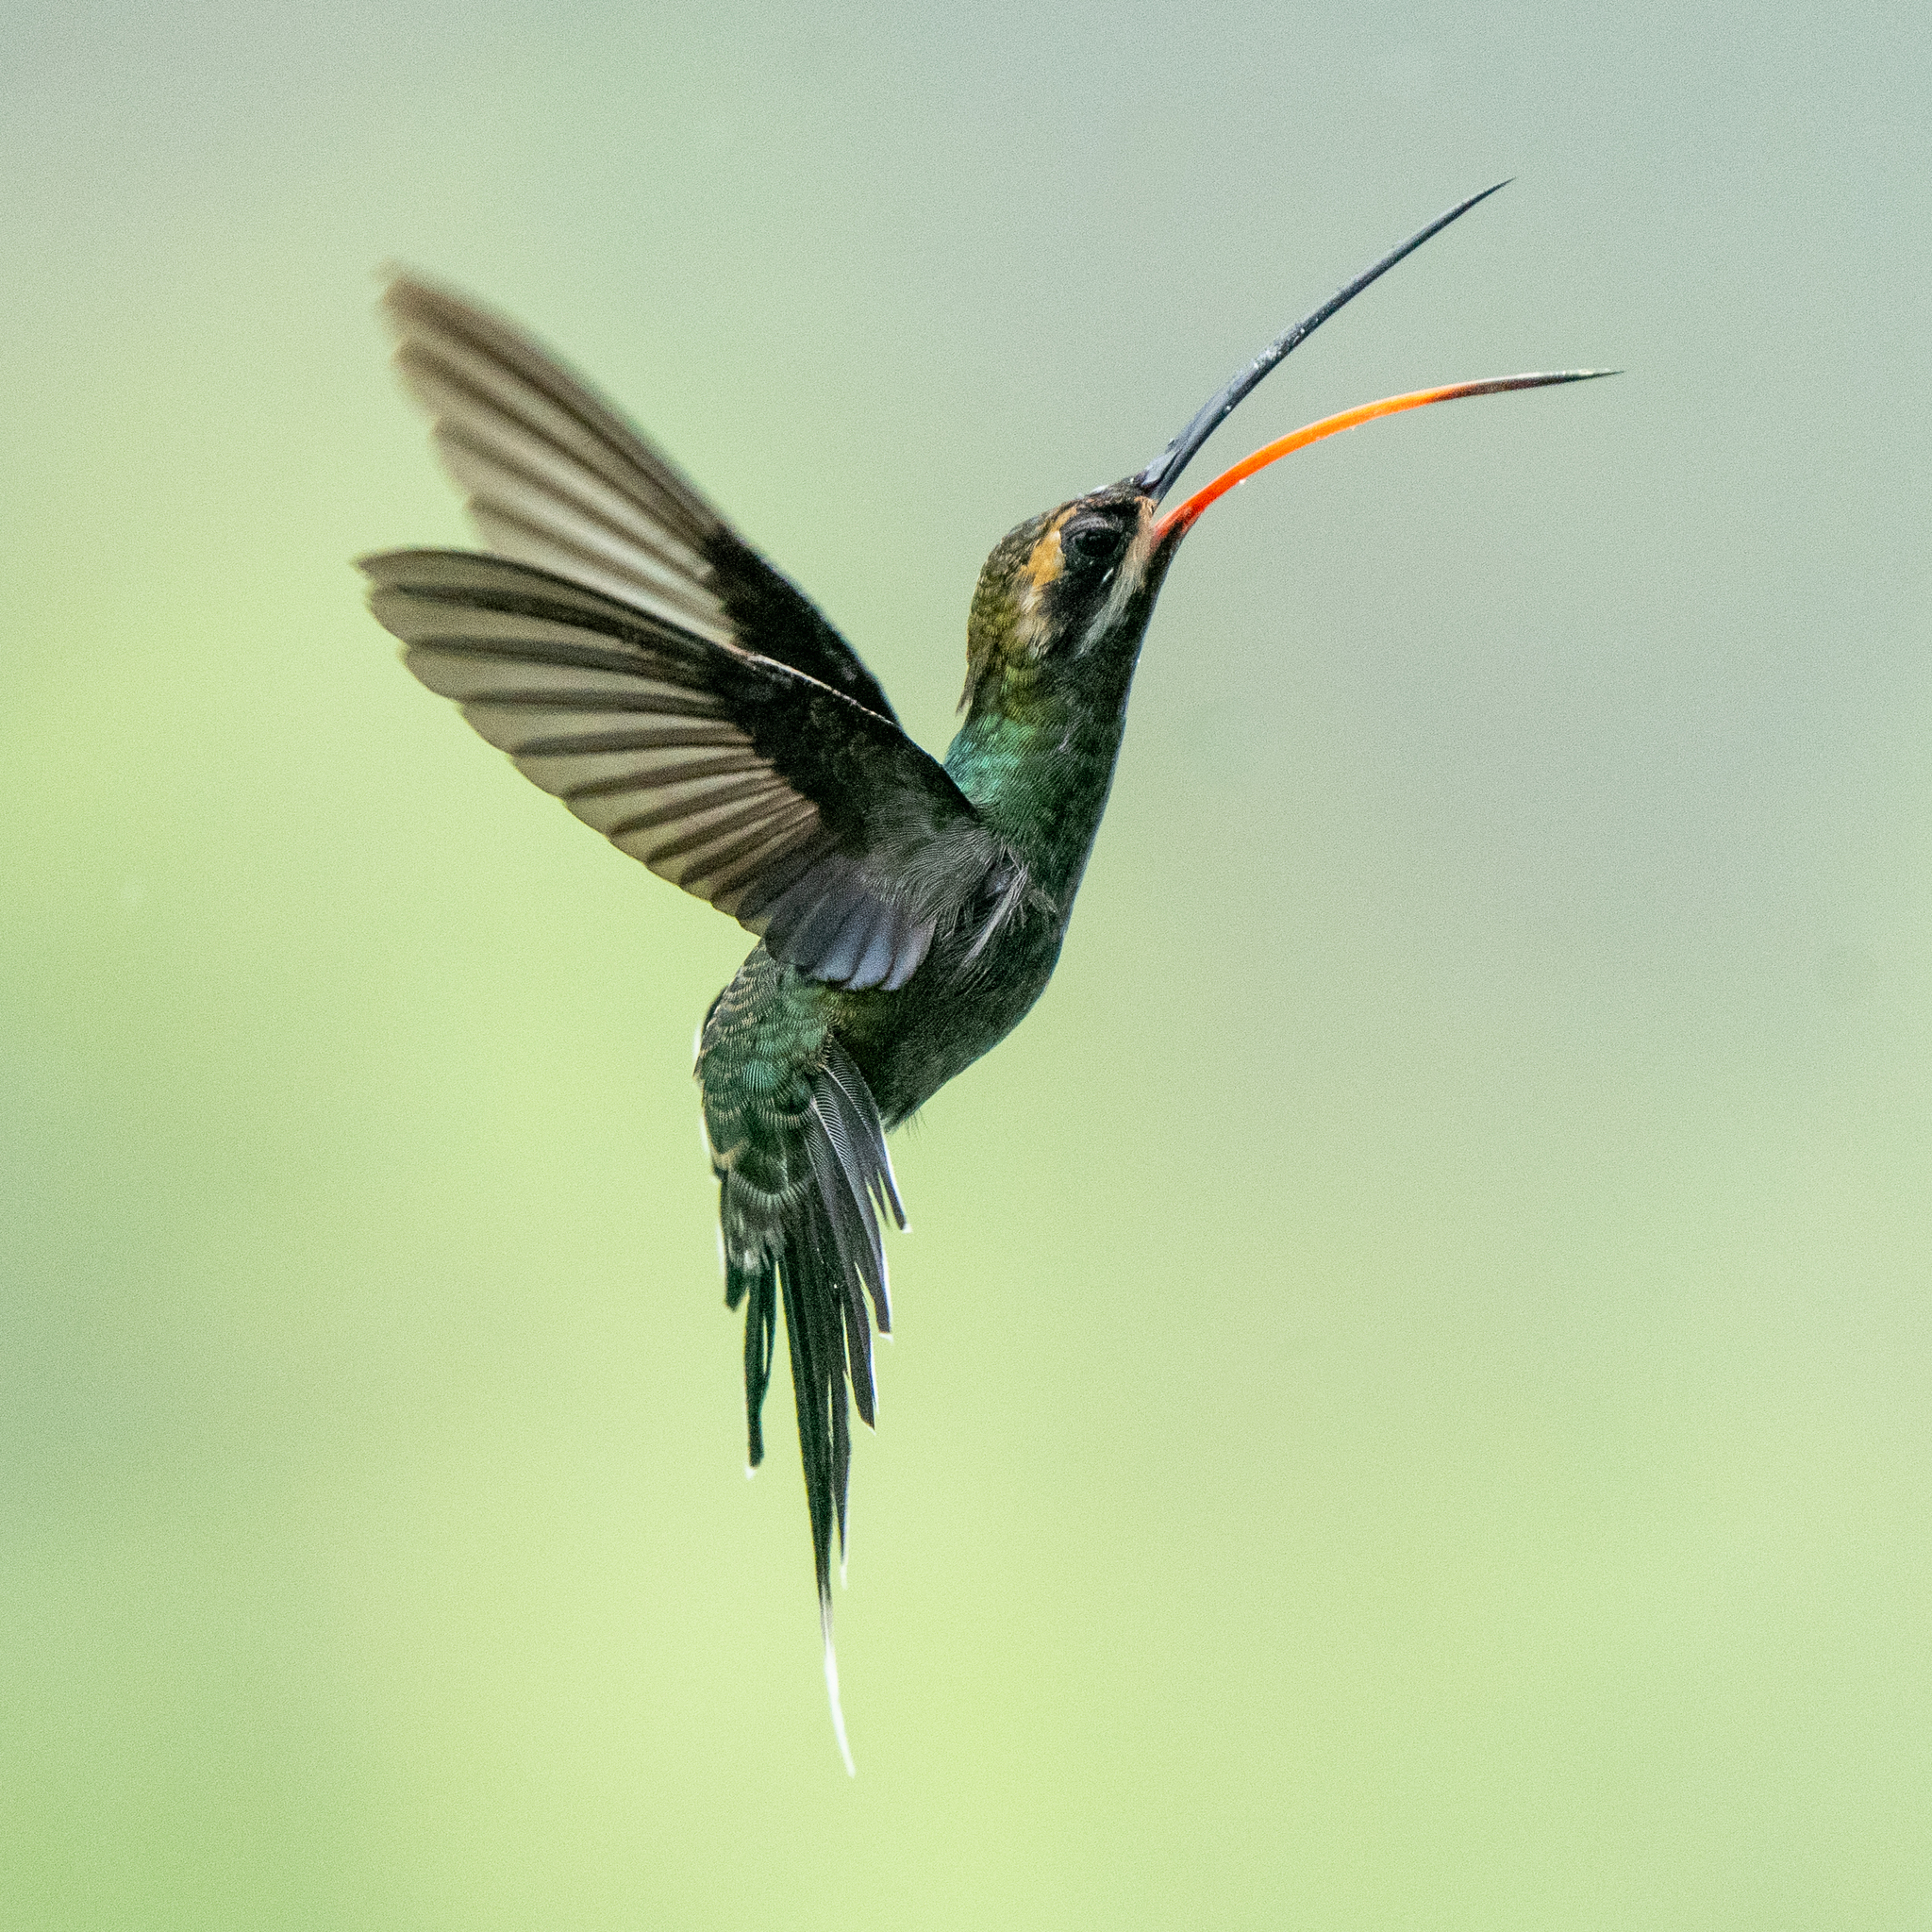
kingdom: Animalia
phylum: Chordata
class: Aves
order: Apodiformes
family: Trochilidae
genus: Phaethornis
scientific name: Phaethornis yaruqui
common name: White-whiskered hermit
